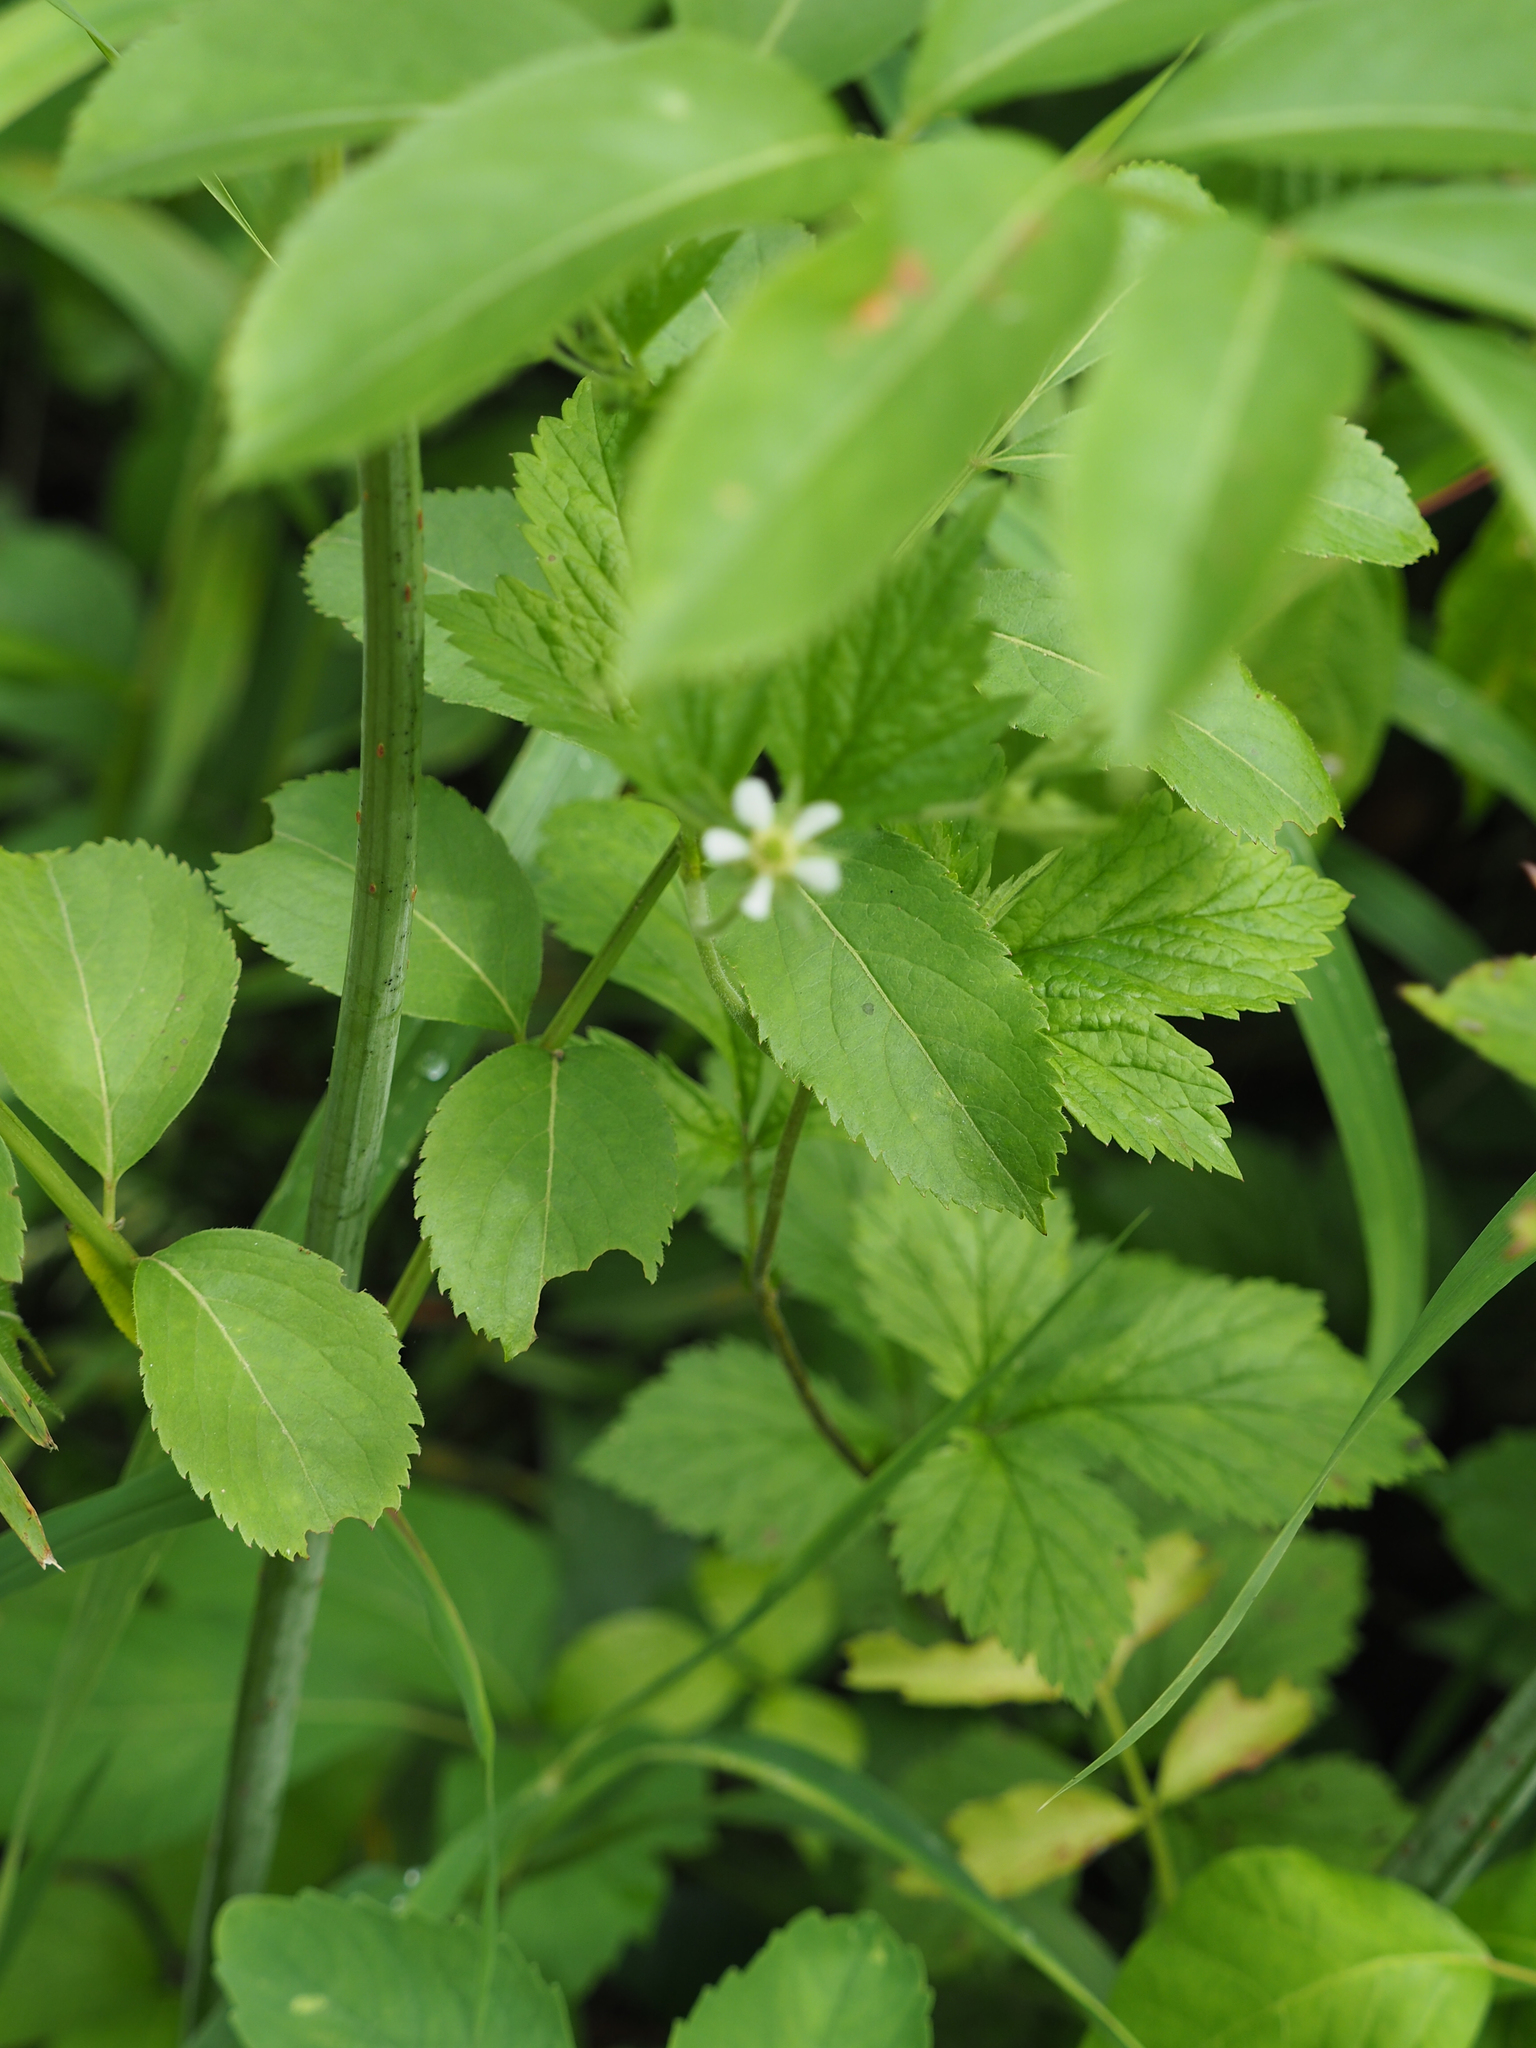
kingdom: Plantae
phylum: Tracheophyta
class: Magnoliopsida
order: Rosales
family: Rosaceae
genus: Geum
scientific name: Geum canadense
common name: White avens
